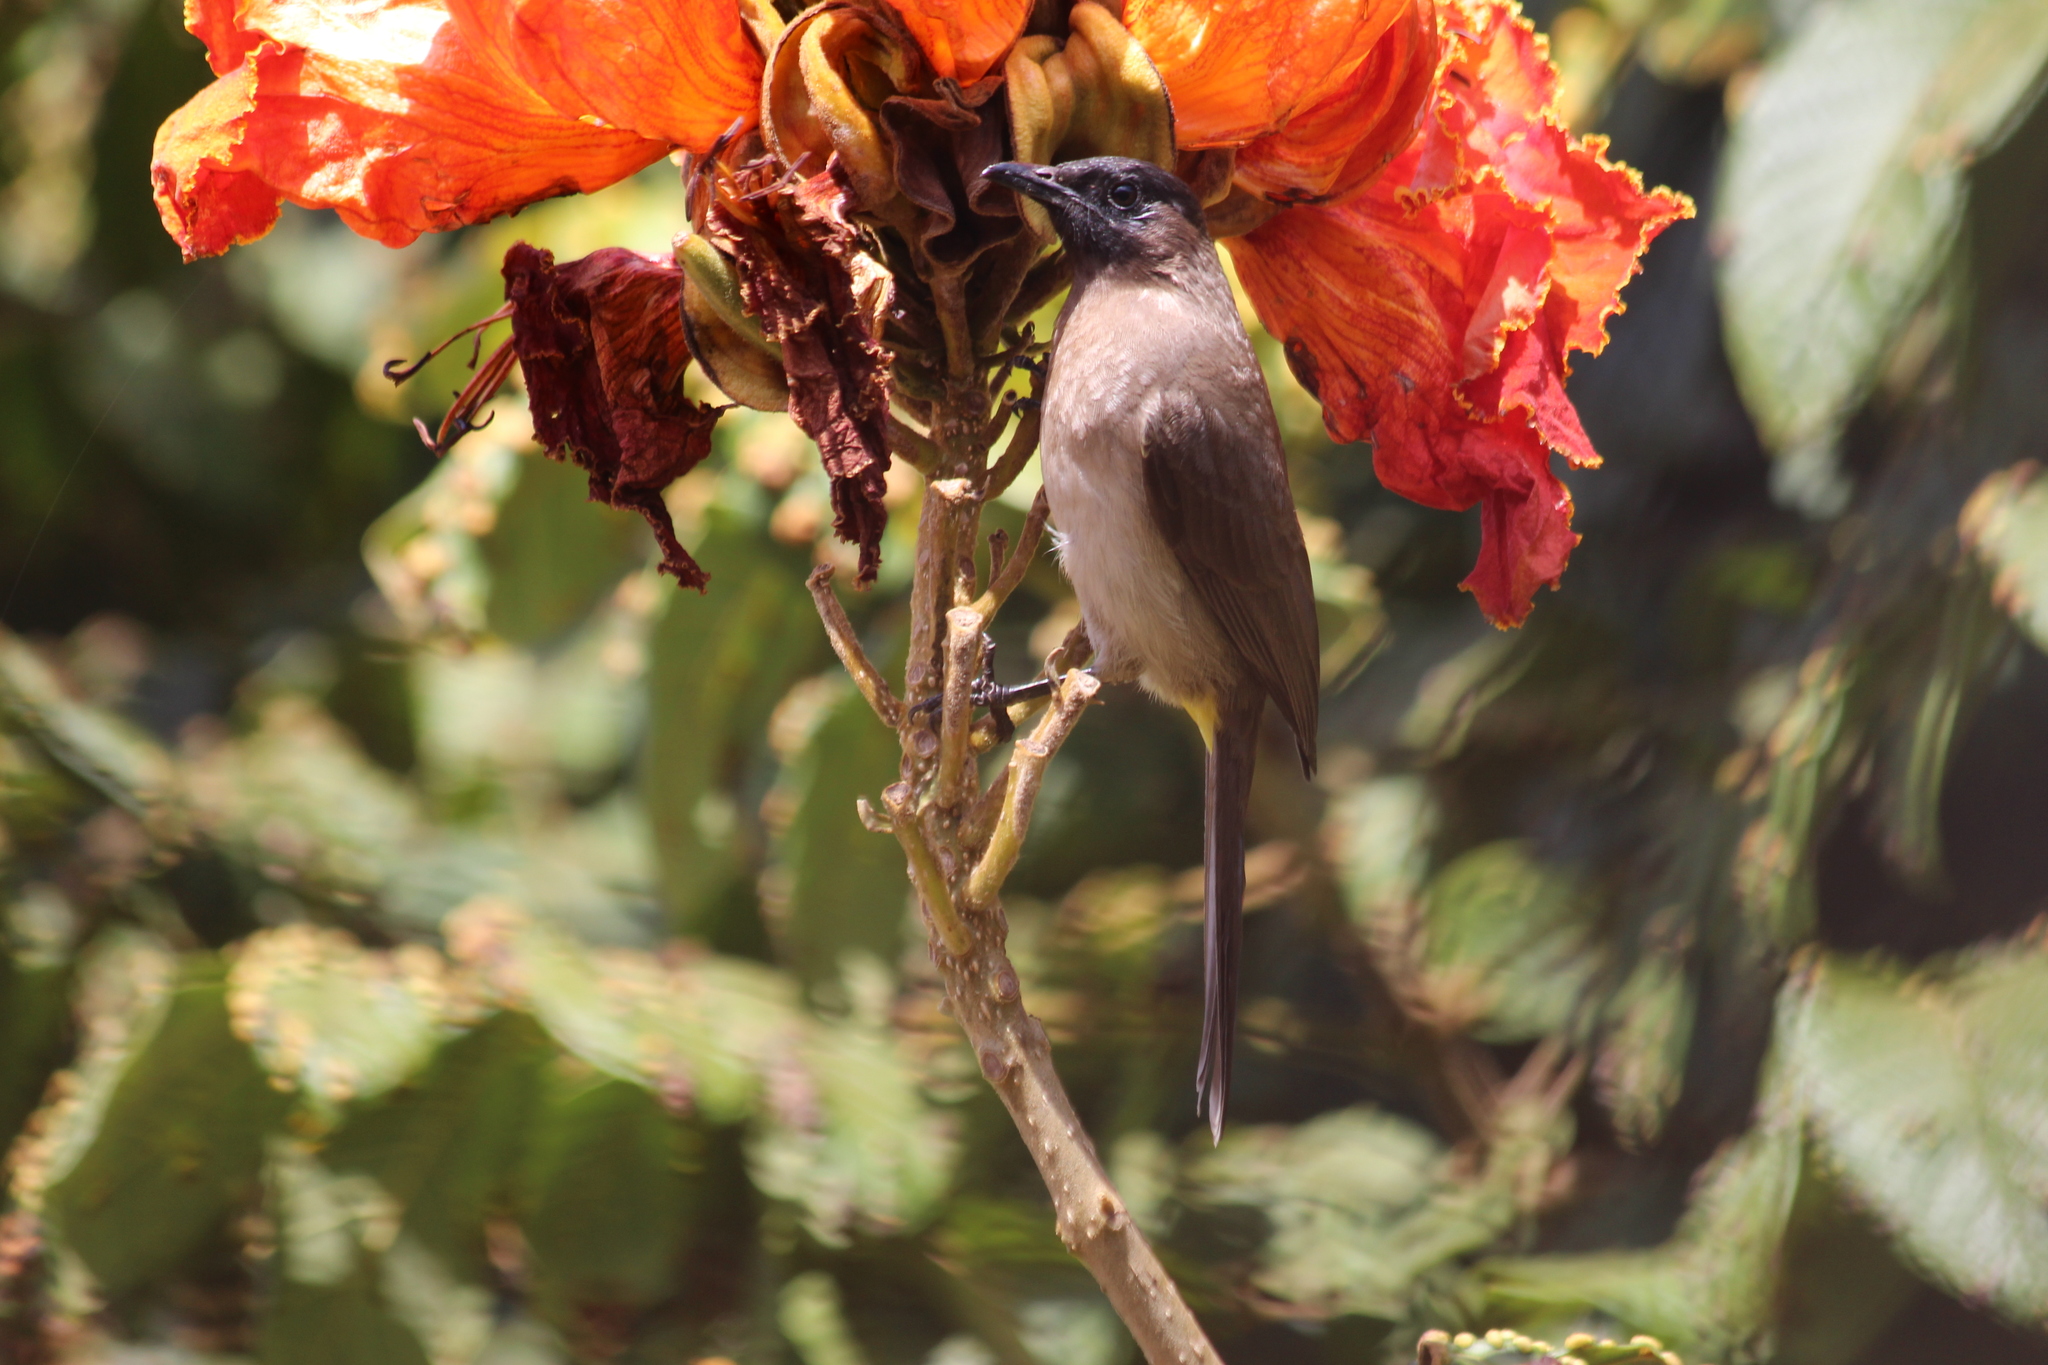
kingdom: Animalia
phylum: Chordata
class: Aves
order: Passeriformes
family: Pycnonotidae
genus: Pycnonotus
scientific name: Pycnonotus barbatus
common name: Common bulbul
